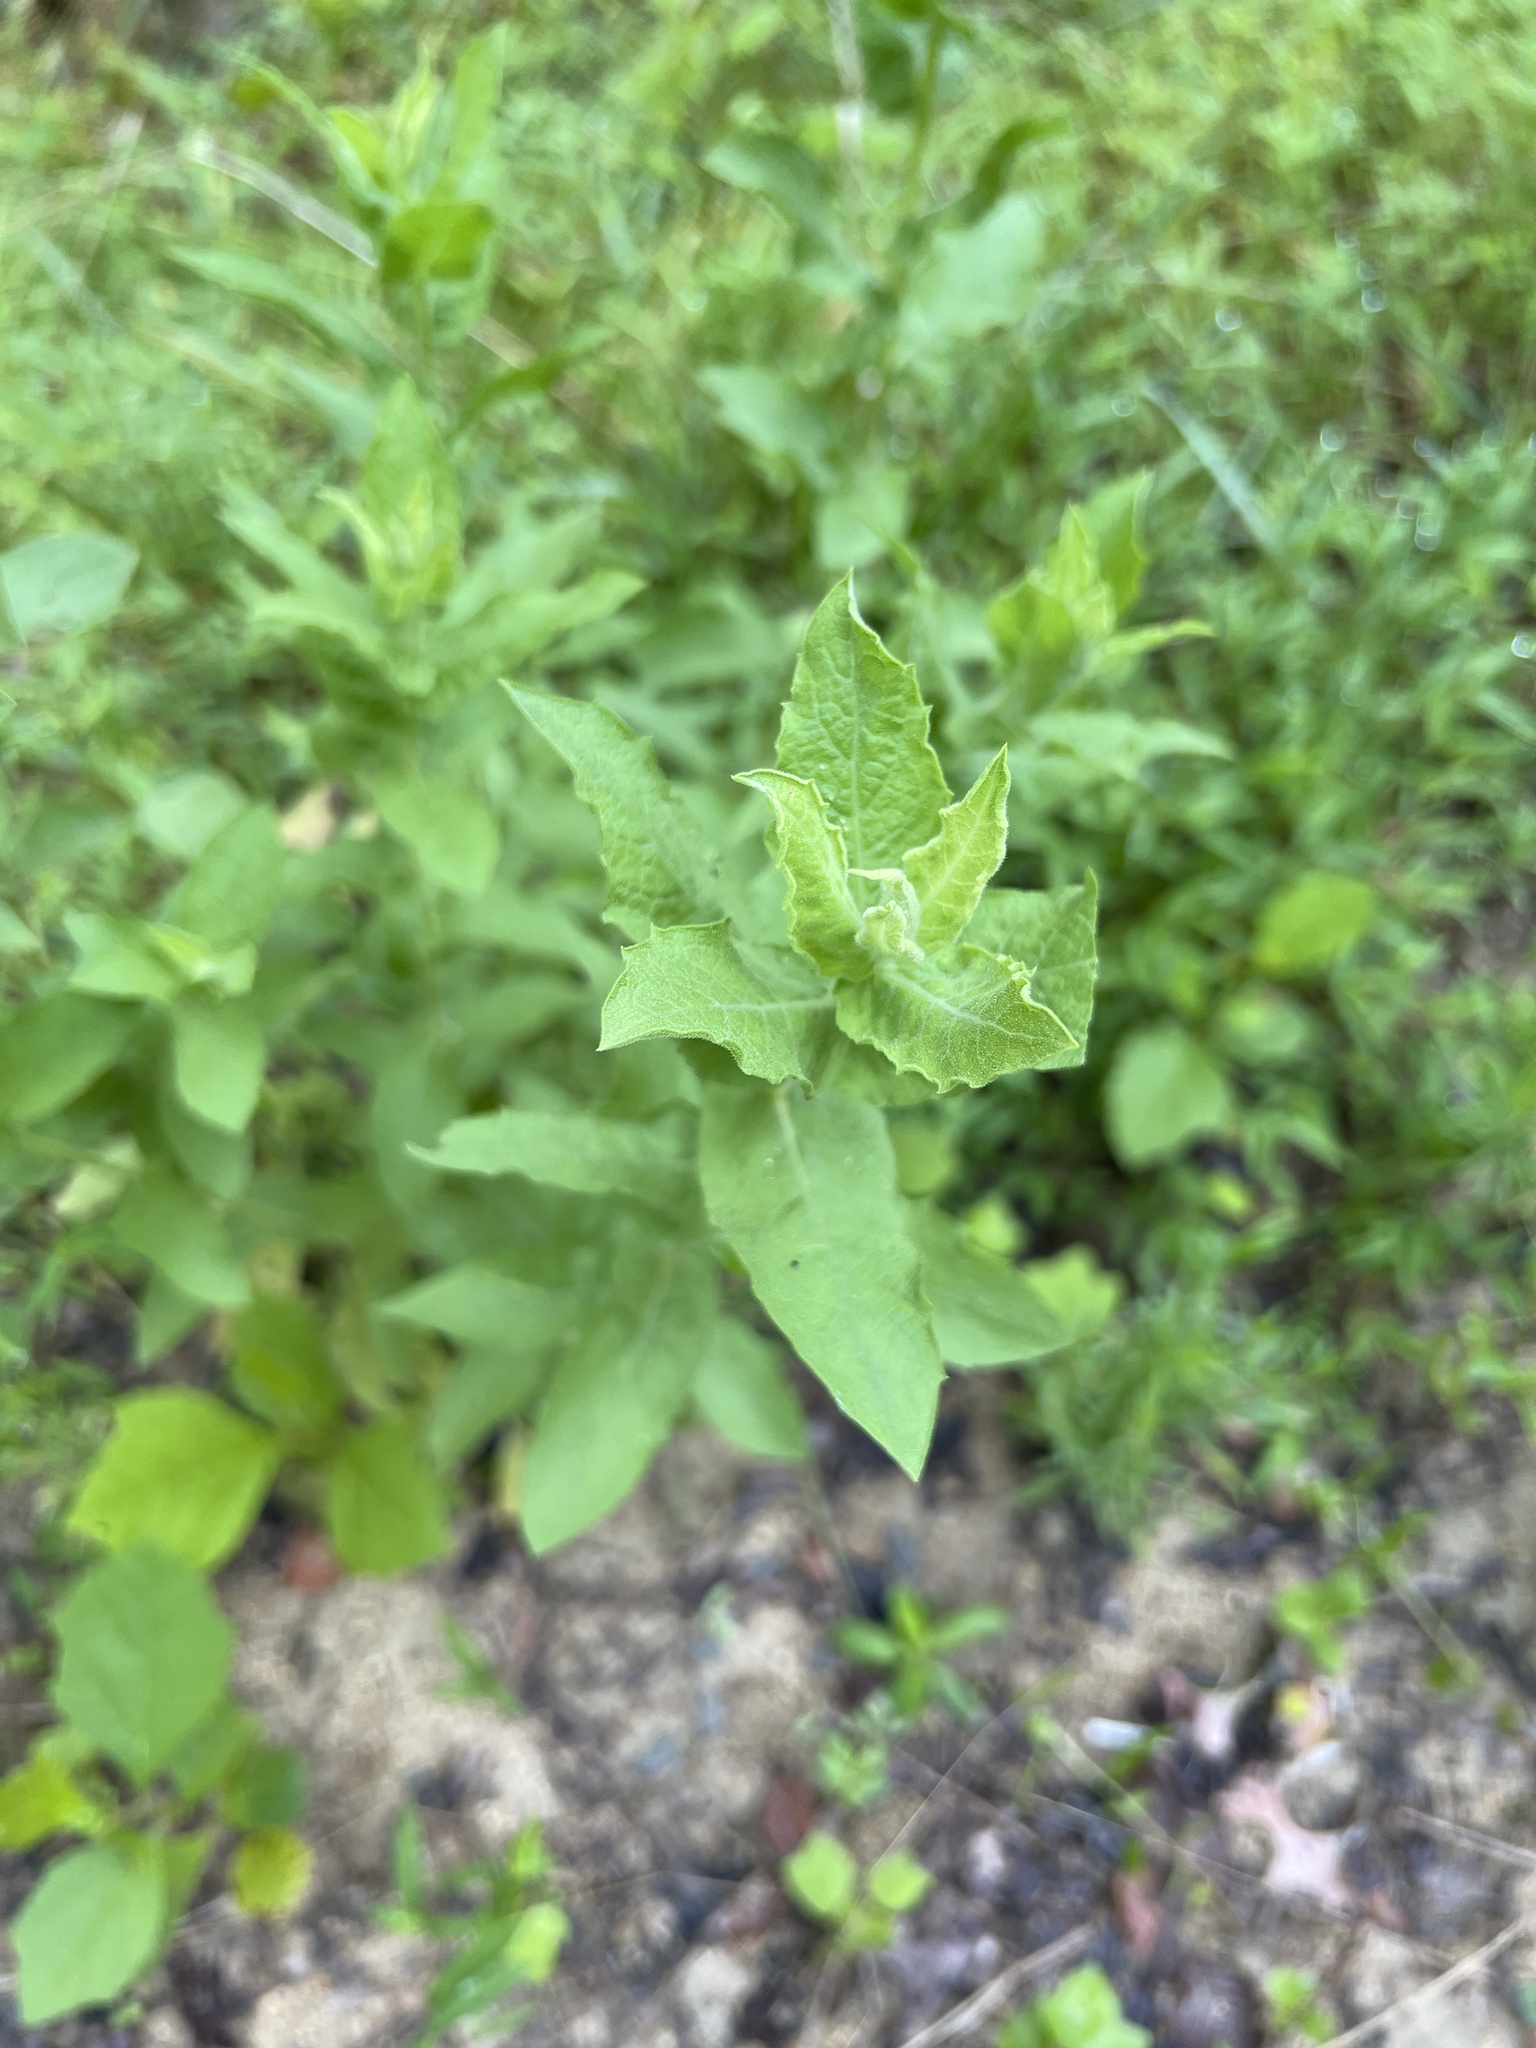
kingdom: Plantae
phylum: Tracheophyta
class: Magnoliopsida
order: Asterales
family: Asteraceae
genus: Heterotheca
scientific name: Heterotheca subaxillaris
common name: Camphorweed
